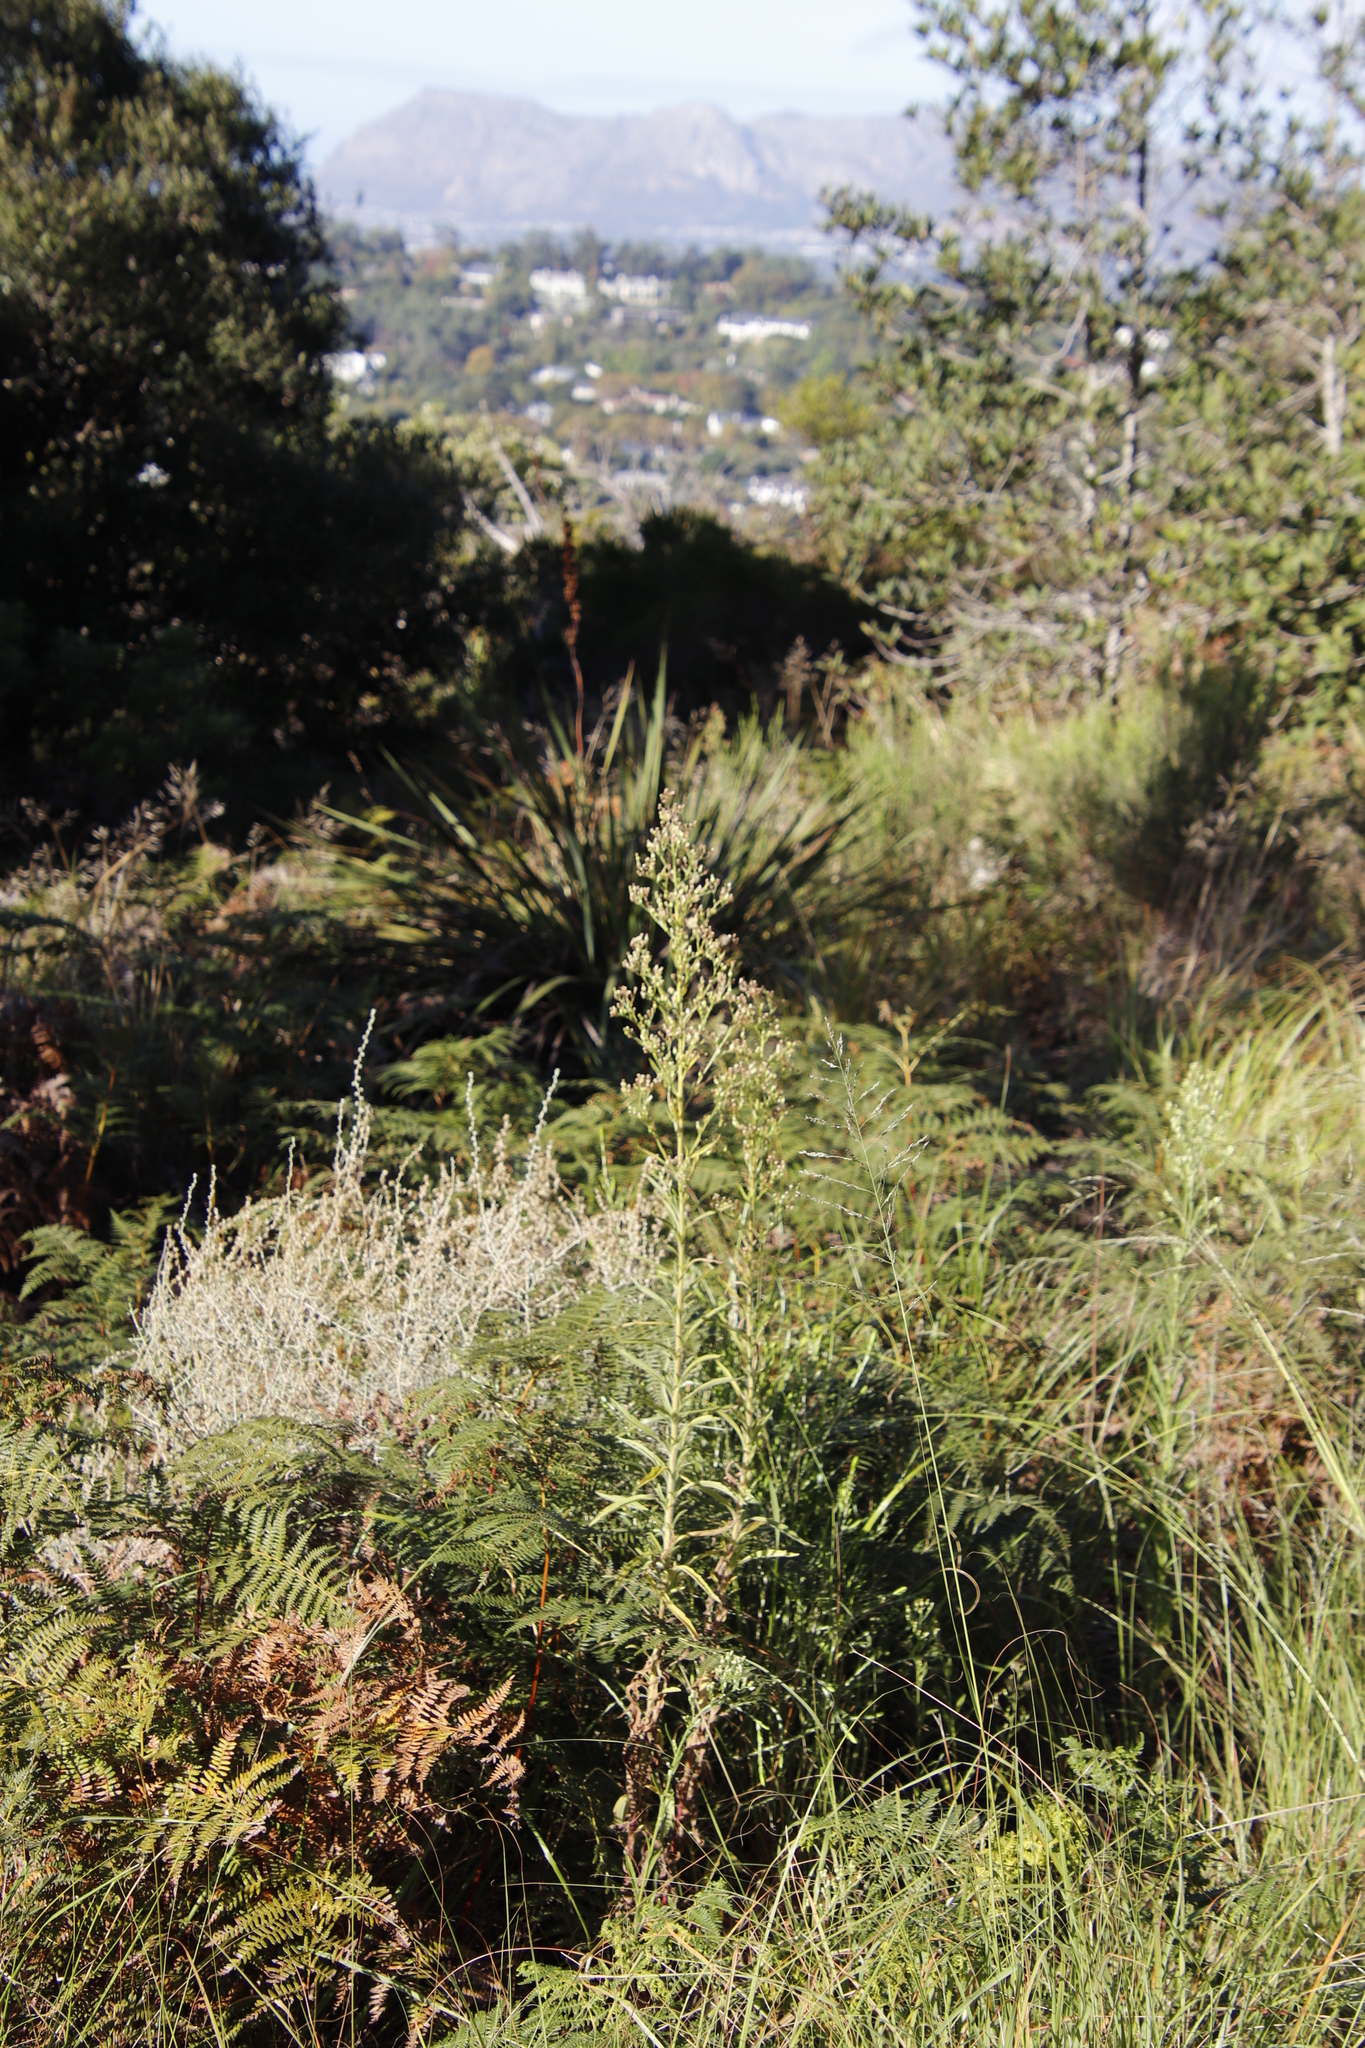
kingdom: Plantae
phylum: Tracheophyta
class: Magnoliopsida
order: Asterales
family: Asteraceae
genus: Erigeron
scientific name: Erigeron sumatrensis
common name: Daisy
